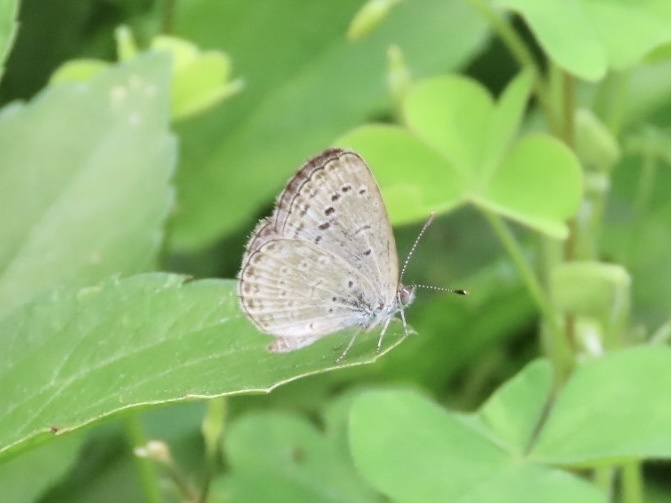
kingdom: Animalia
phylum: Arthropoda
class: Insecta
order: Lepidoptera
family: Lycaenidae
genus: Pseudozizeeria
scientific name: Pseudozizeeria maha
